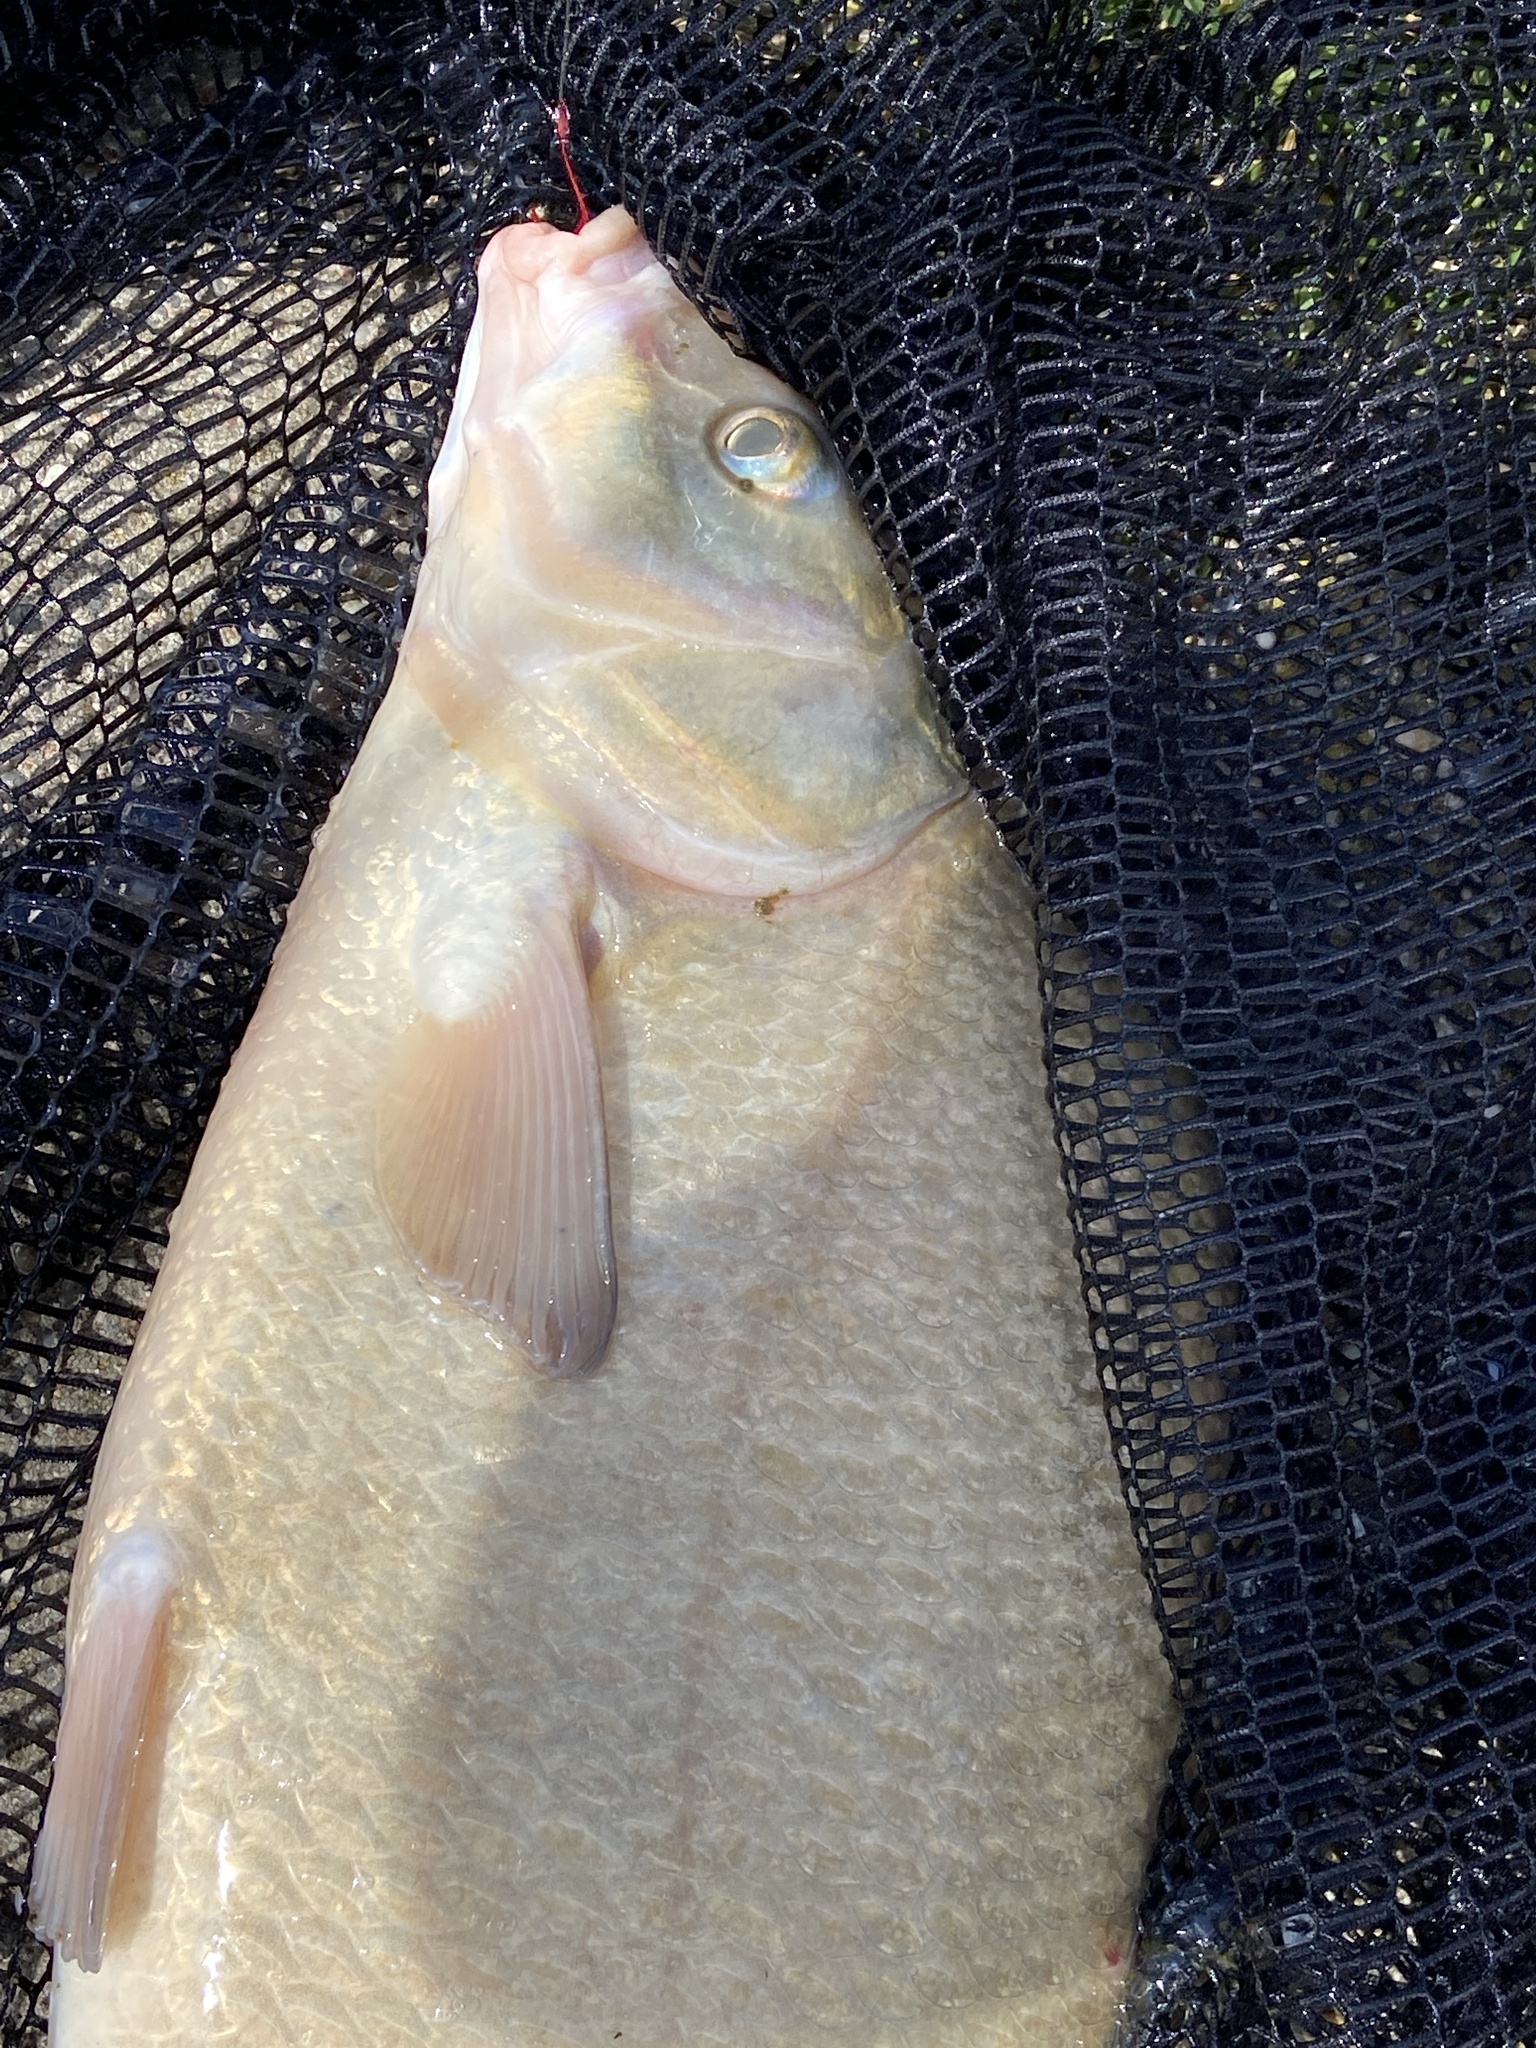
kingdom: Animalia
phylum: Chordata
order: Cypriniformes
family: Cyprinidae
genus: Abramis
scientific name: Abramis brama
